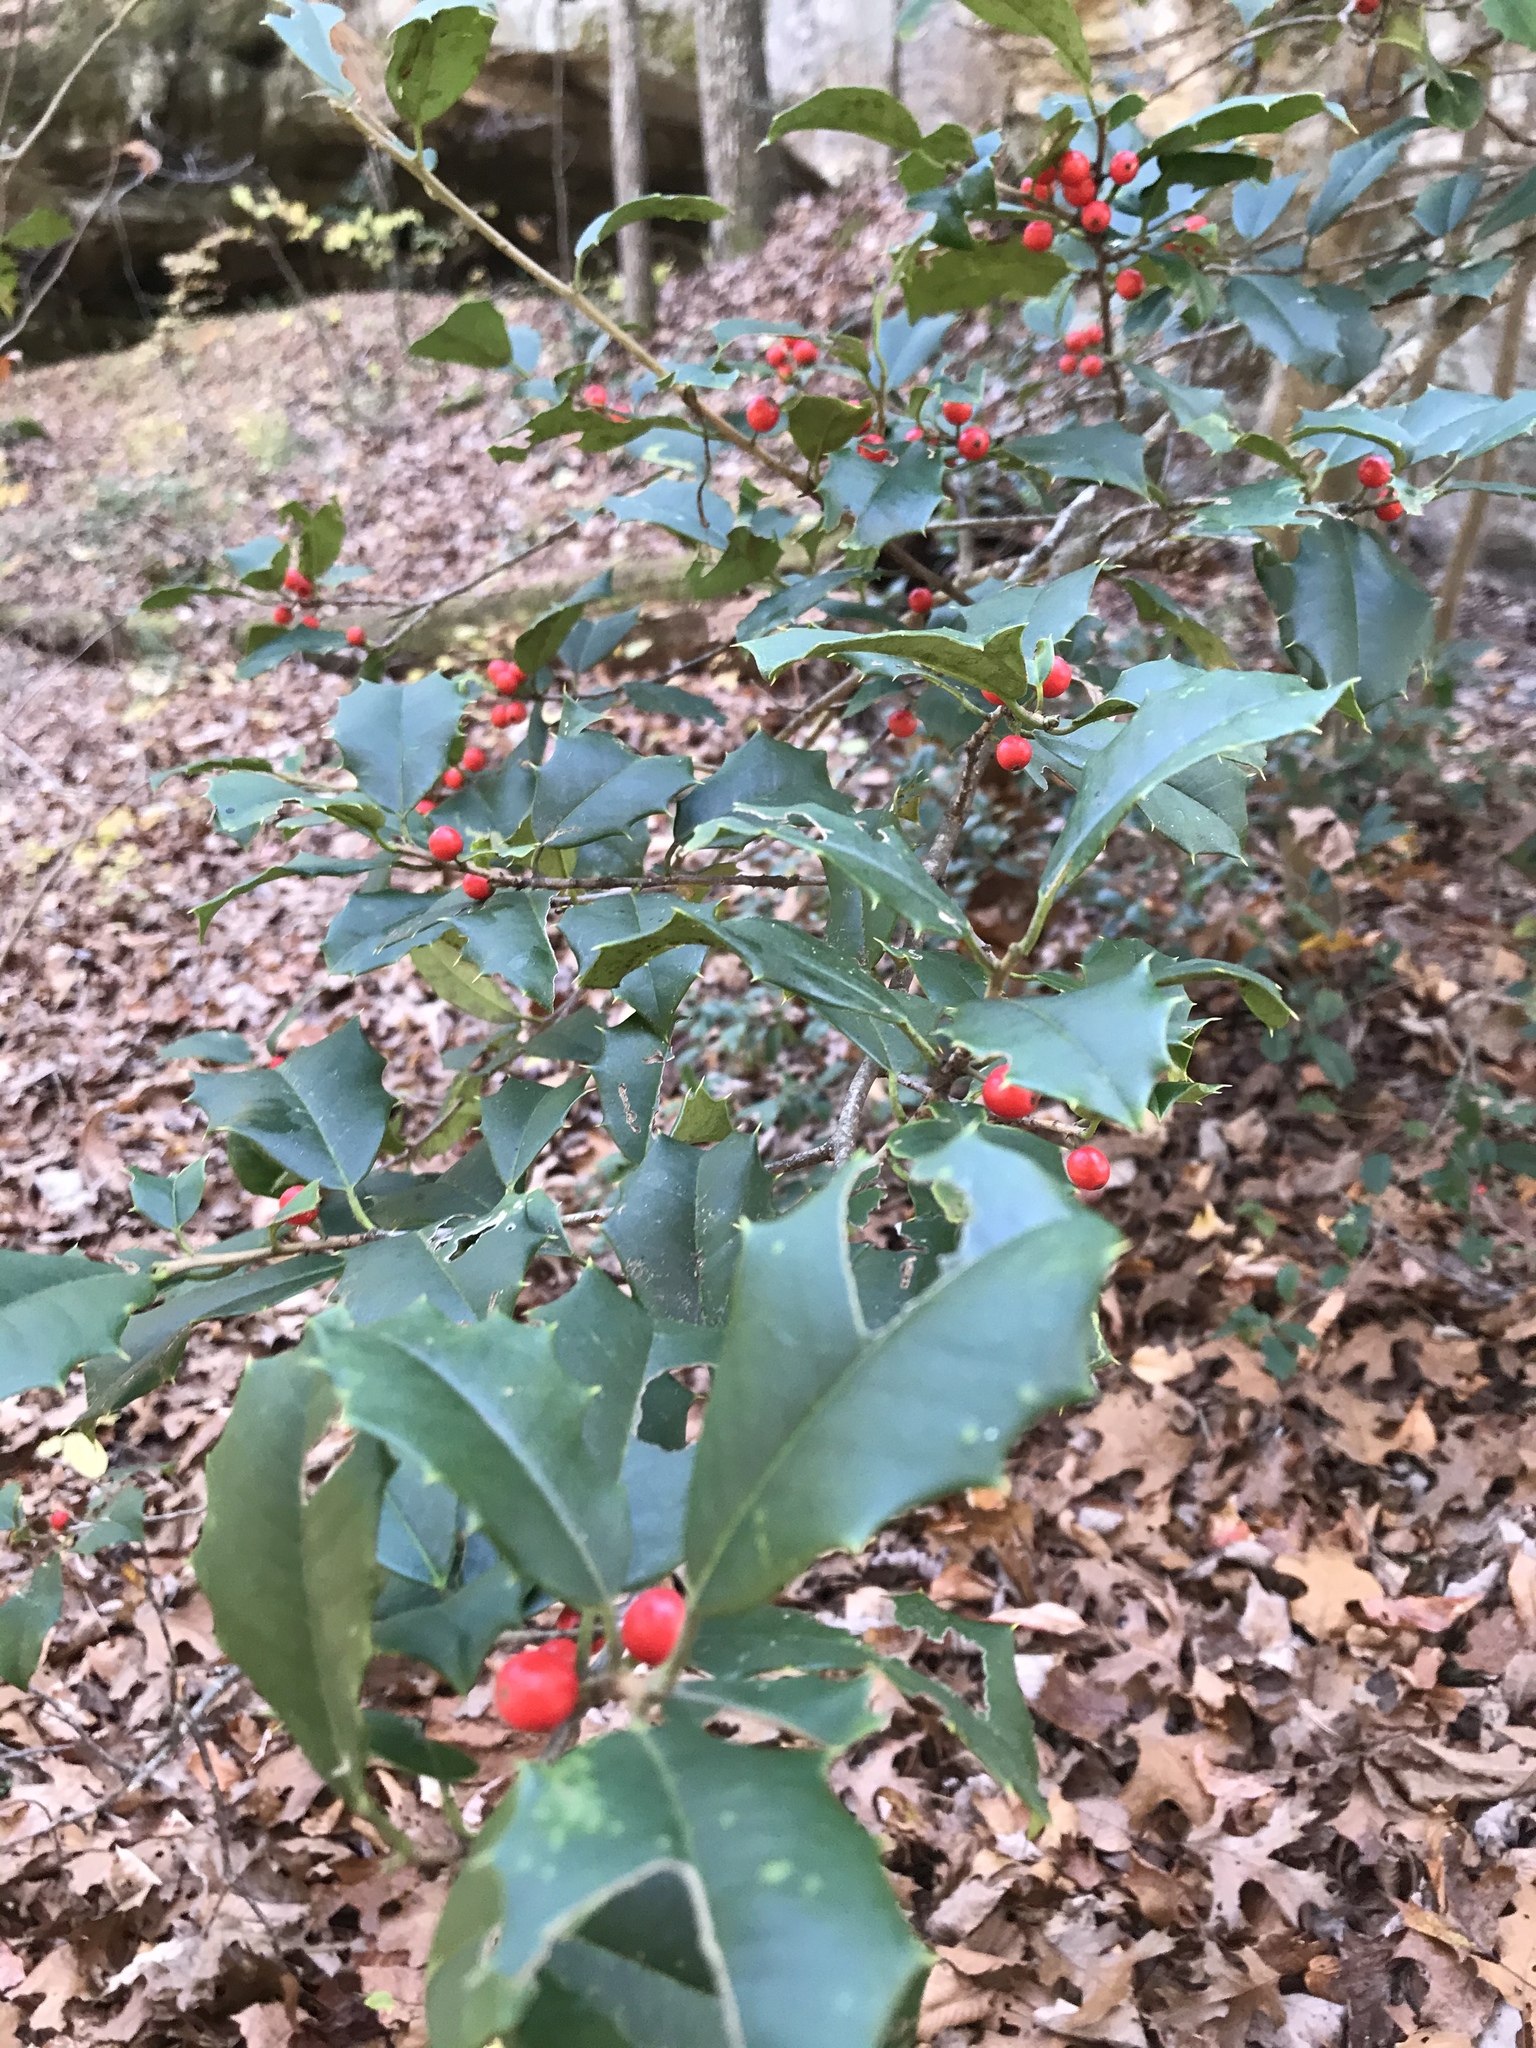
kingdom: Plantae
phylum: Tracheophyta
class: Magnoliopsida
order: Aquifoliales
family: Aquifoliaceae
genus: Ilex
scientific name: Ilex opaca
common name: American holly
